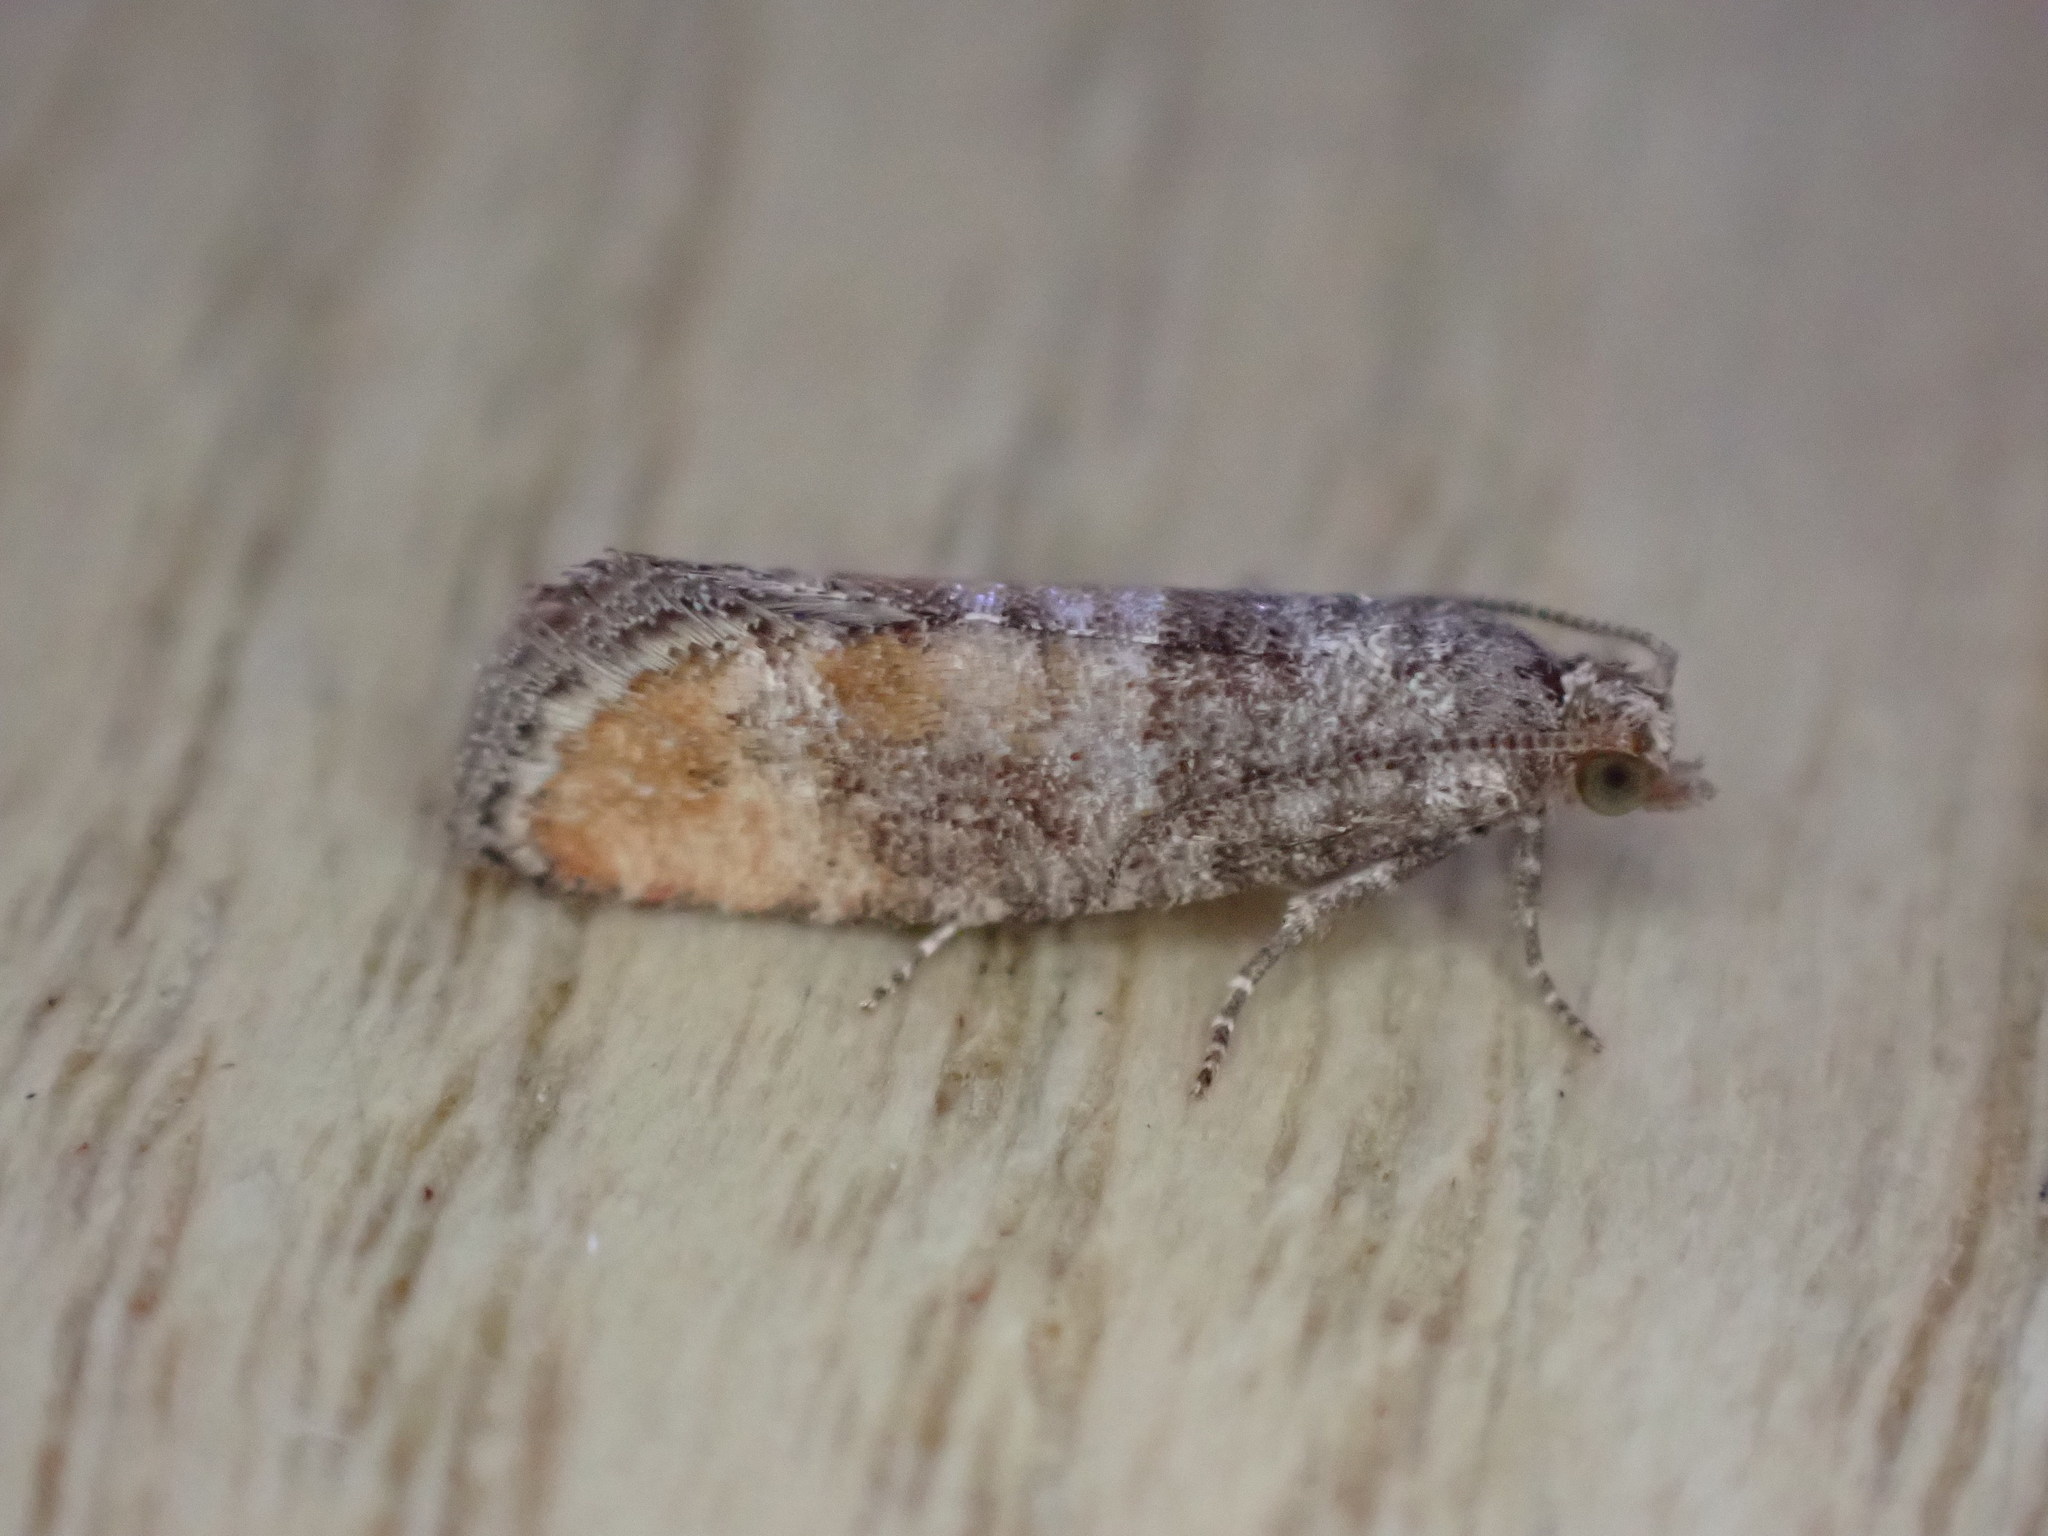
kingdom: Animalia
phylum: Arthropoda
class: Insecta
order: Lepidoptera
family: Tortricidae
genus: Clavigesta
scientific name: Clavigesta purdeyi
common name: Pine leaf-mining moth
